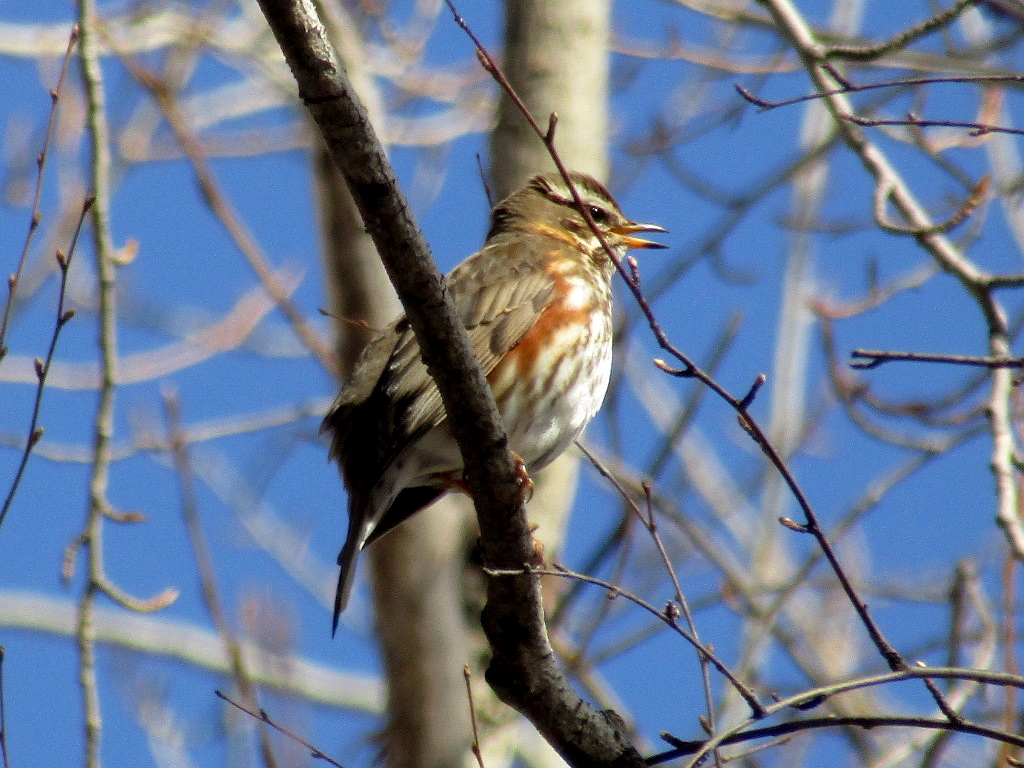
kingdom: Animalia
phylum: Chordata
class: Aves
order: Passeriformes
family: Turdidae
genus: Turdus
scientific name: Turdus iliacus
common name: Redwing
